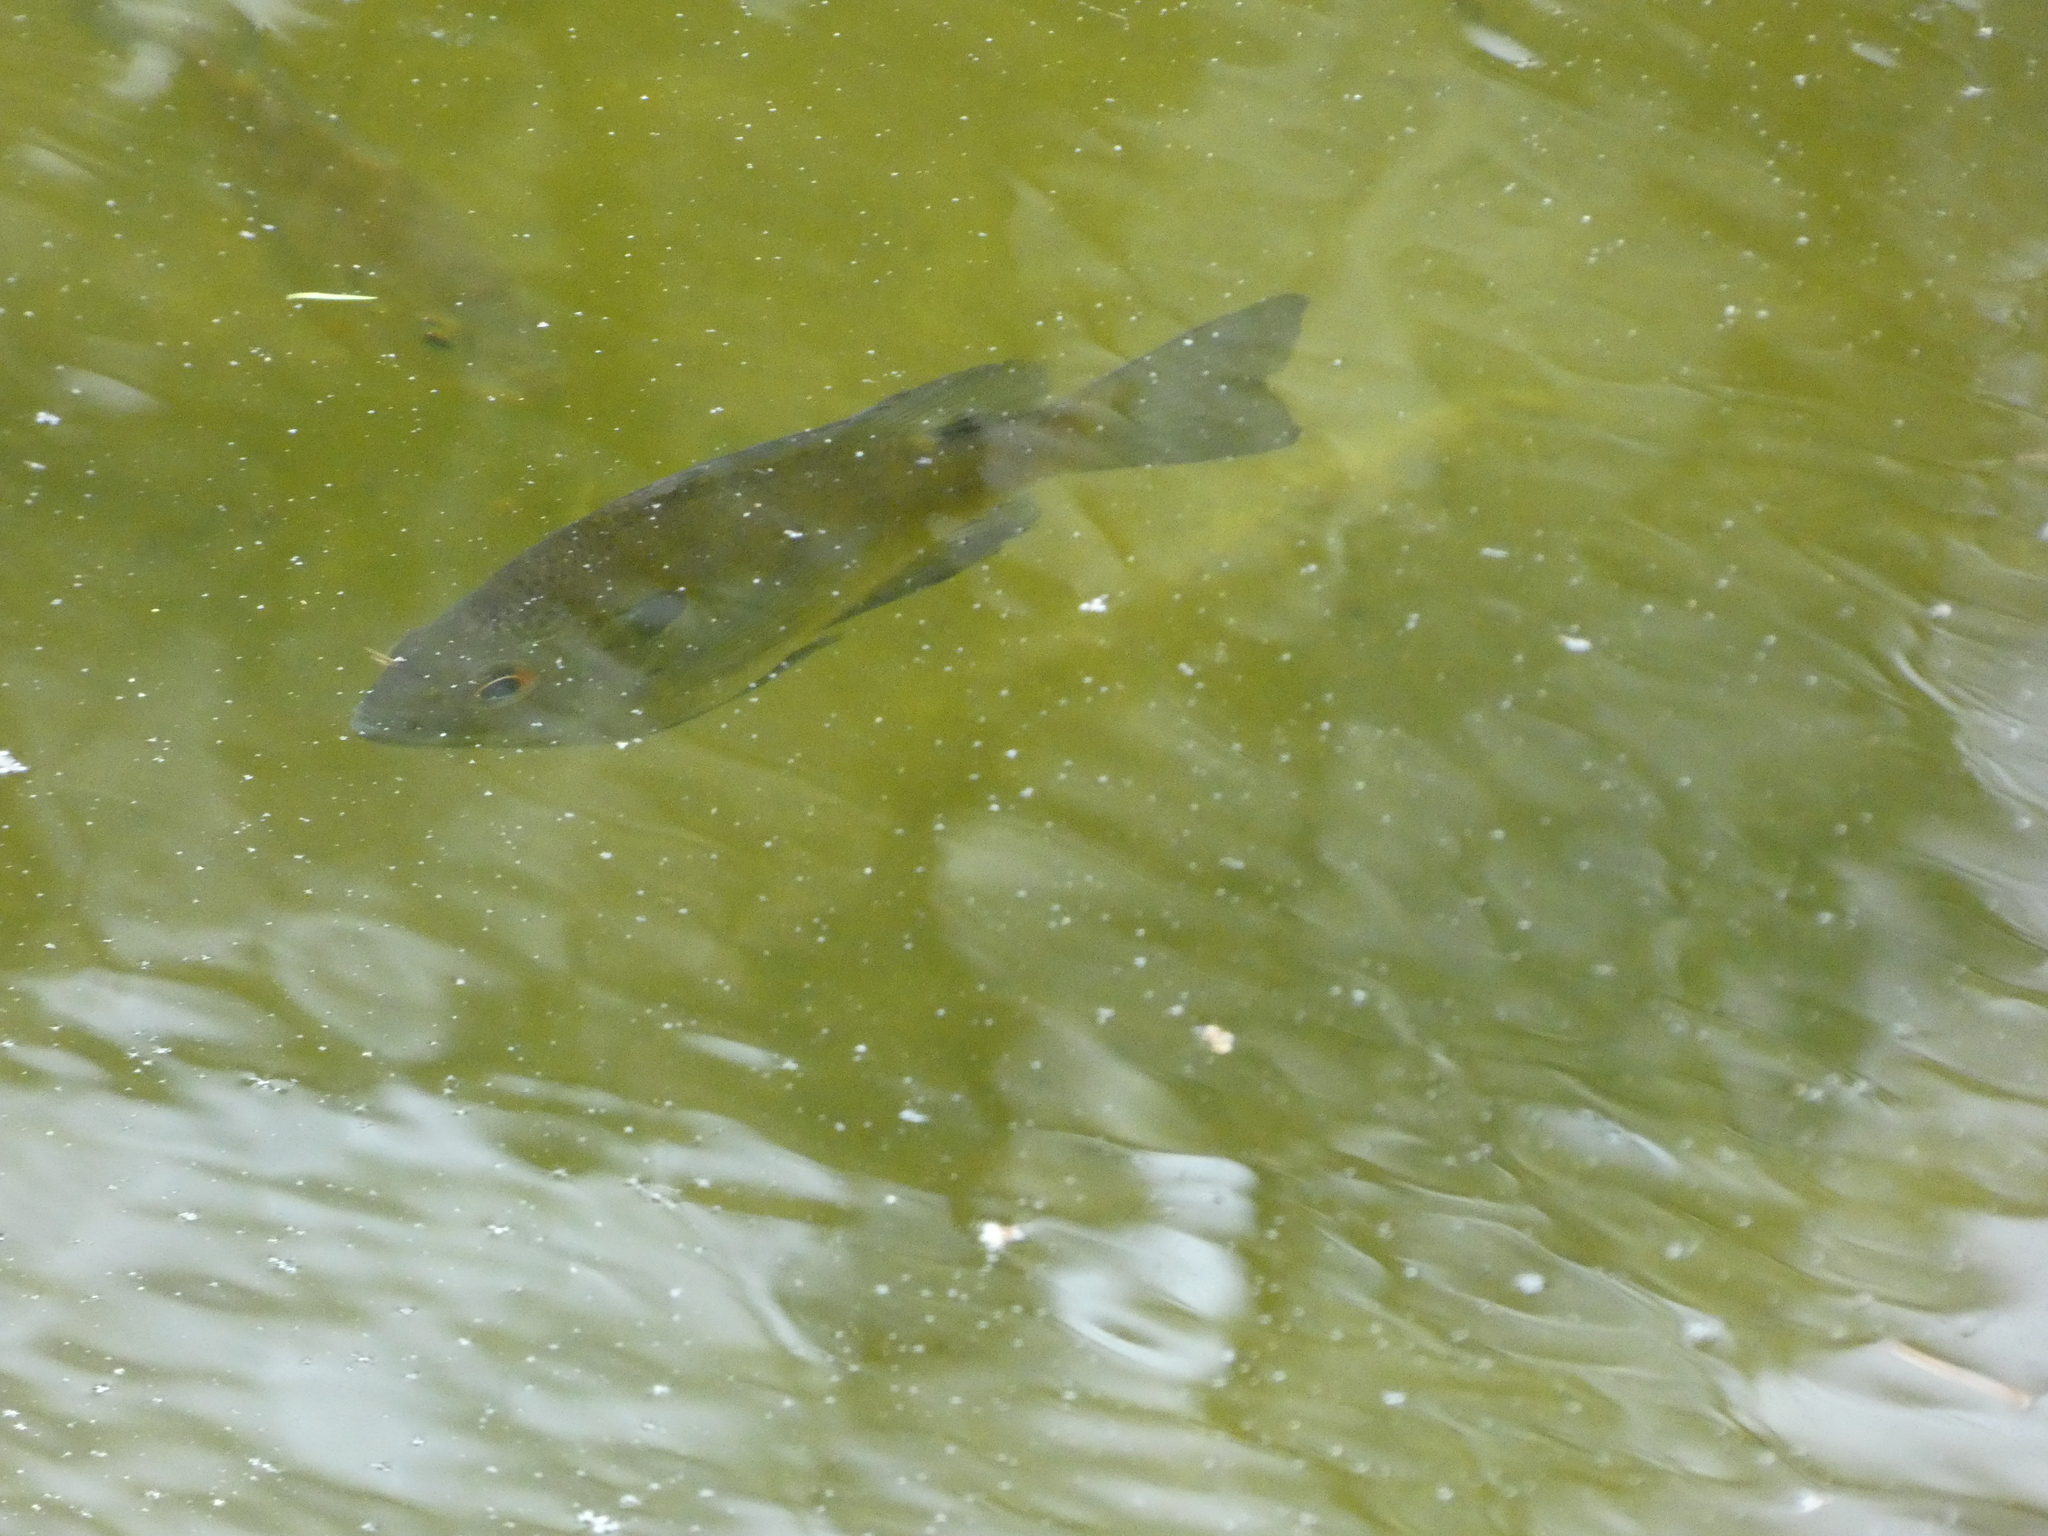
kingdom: Animalia
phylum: Chordata
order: Perciformes
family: Centrarchidae
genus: Lepomis
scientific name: Lepomis macrochirus
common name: Bluegill
